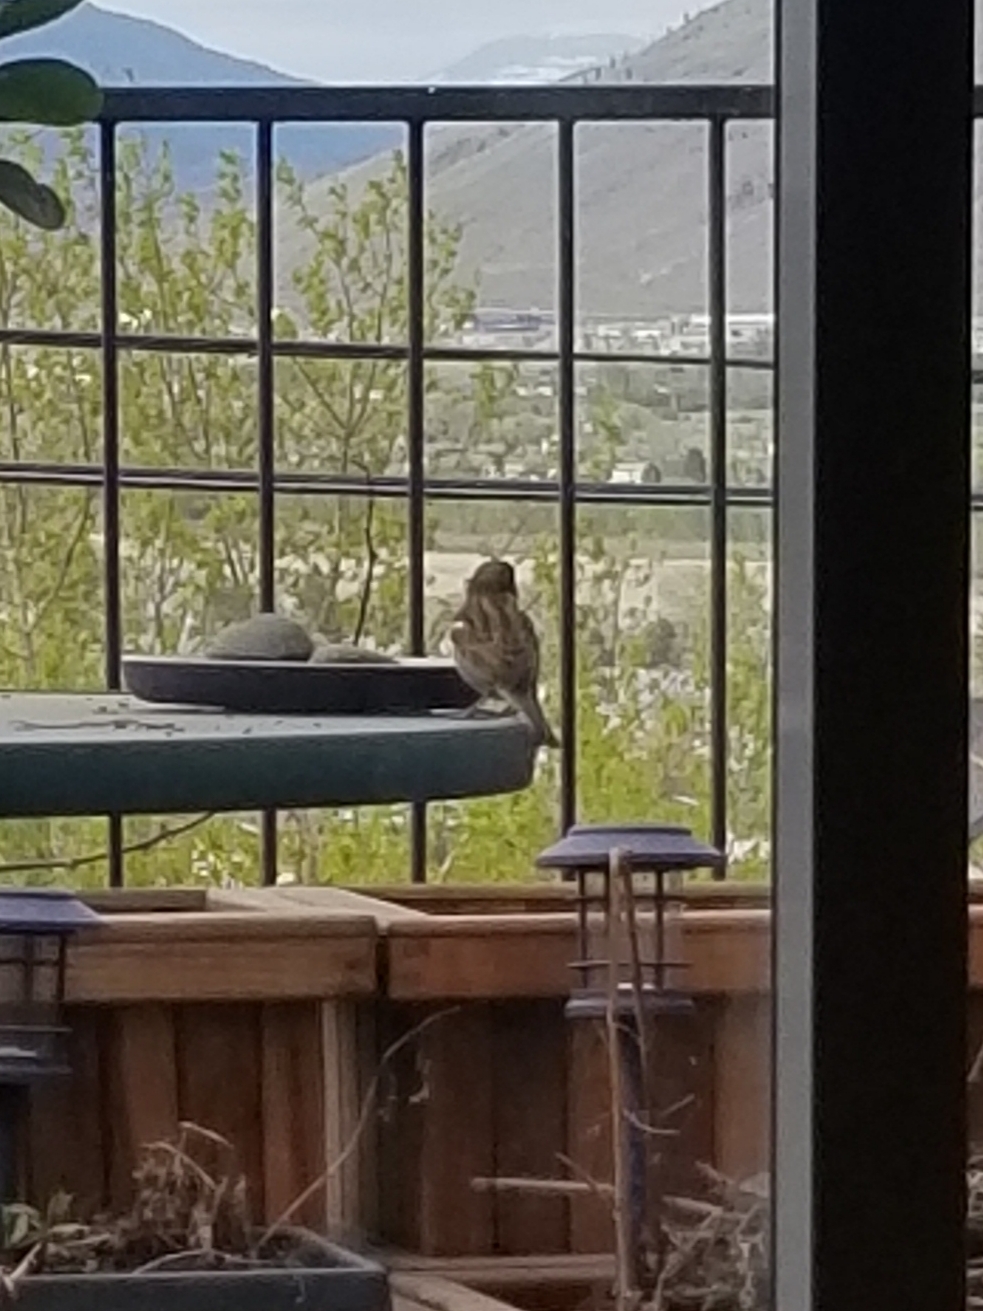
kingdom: Animalia
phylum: Chordata
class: Aves
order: Passeriformes
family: Passeridae
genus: Passer
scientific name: Passer domesticus
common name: House sparrow
